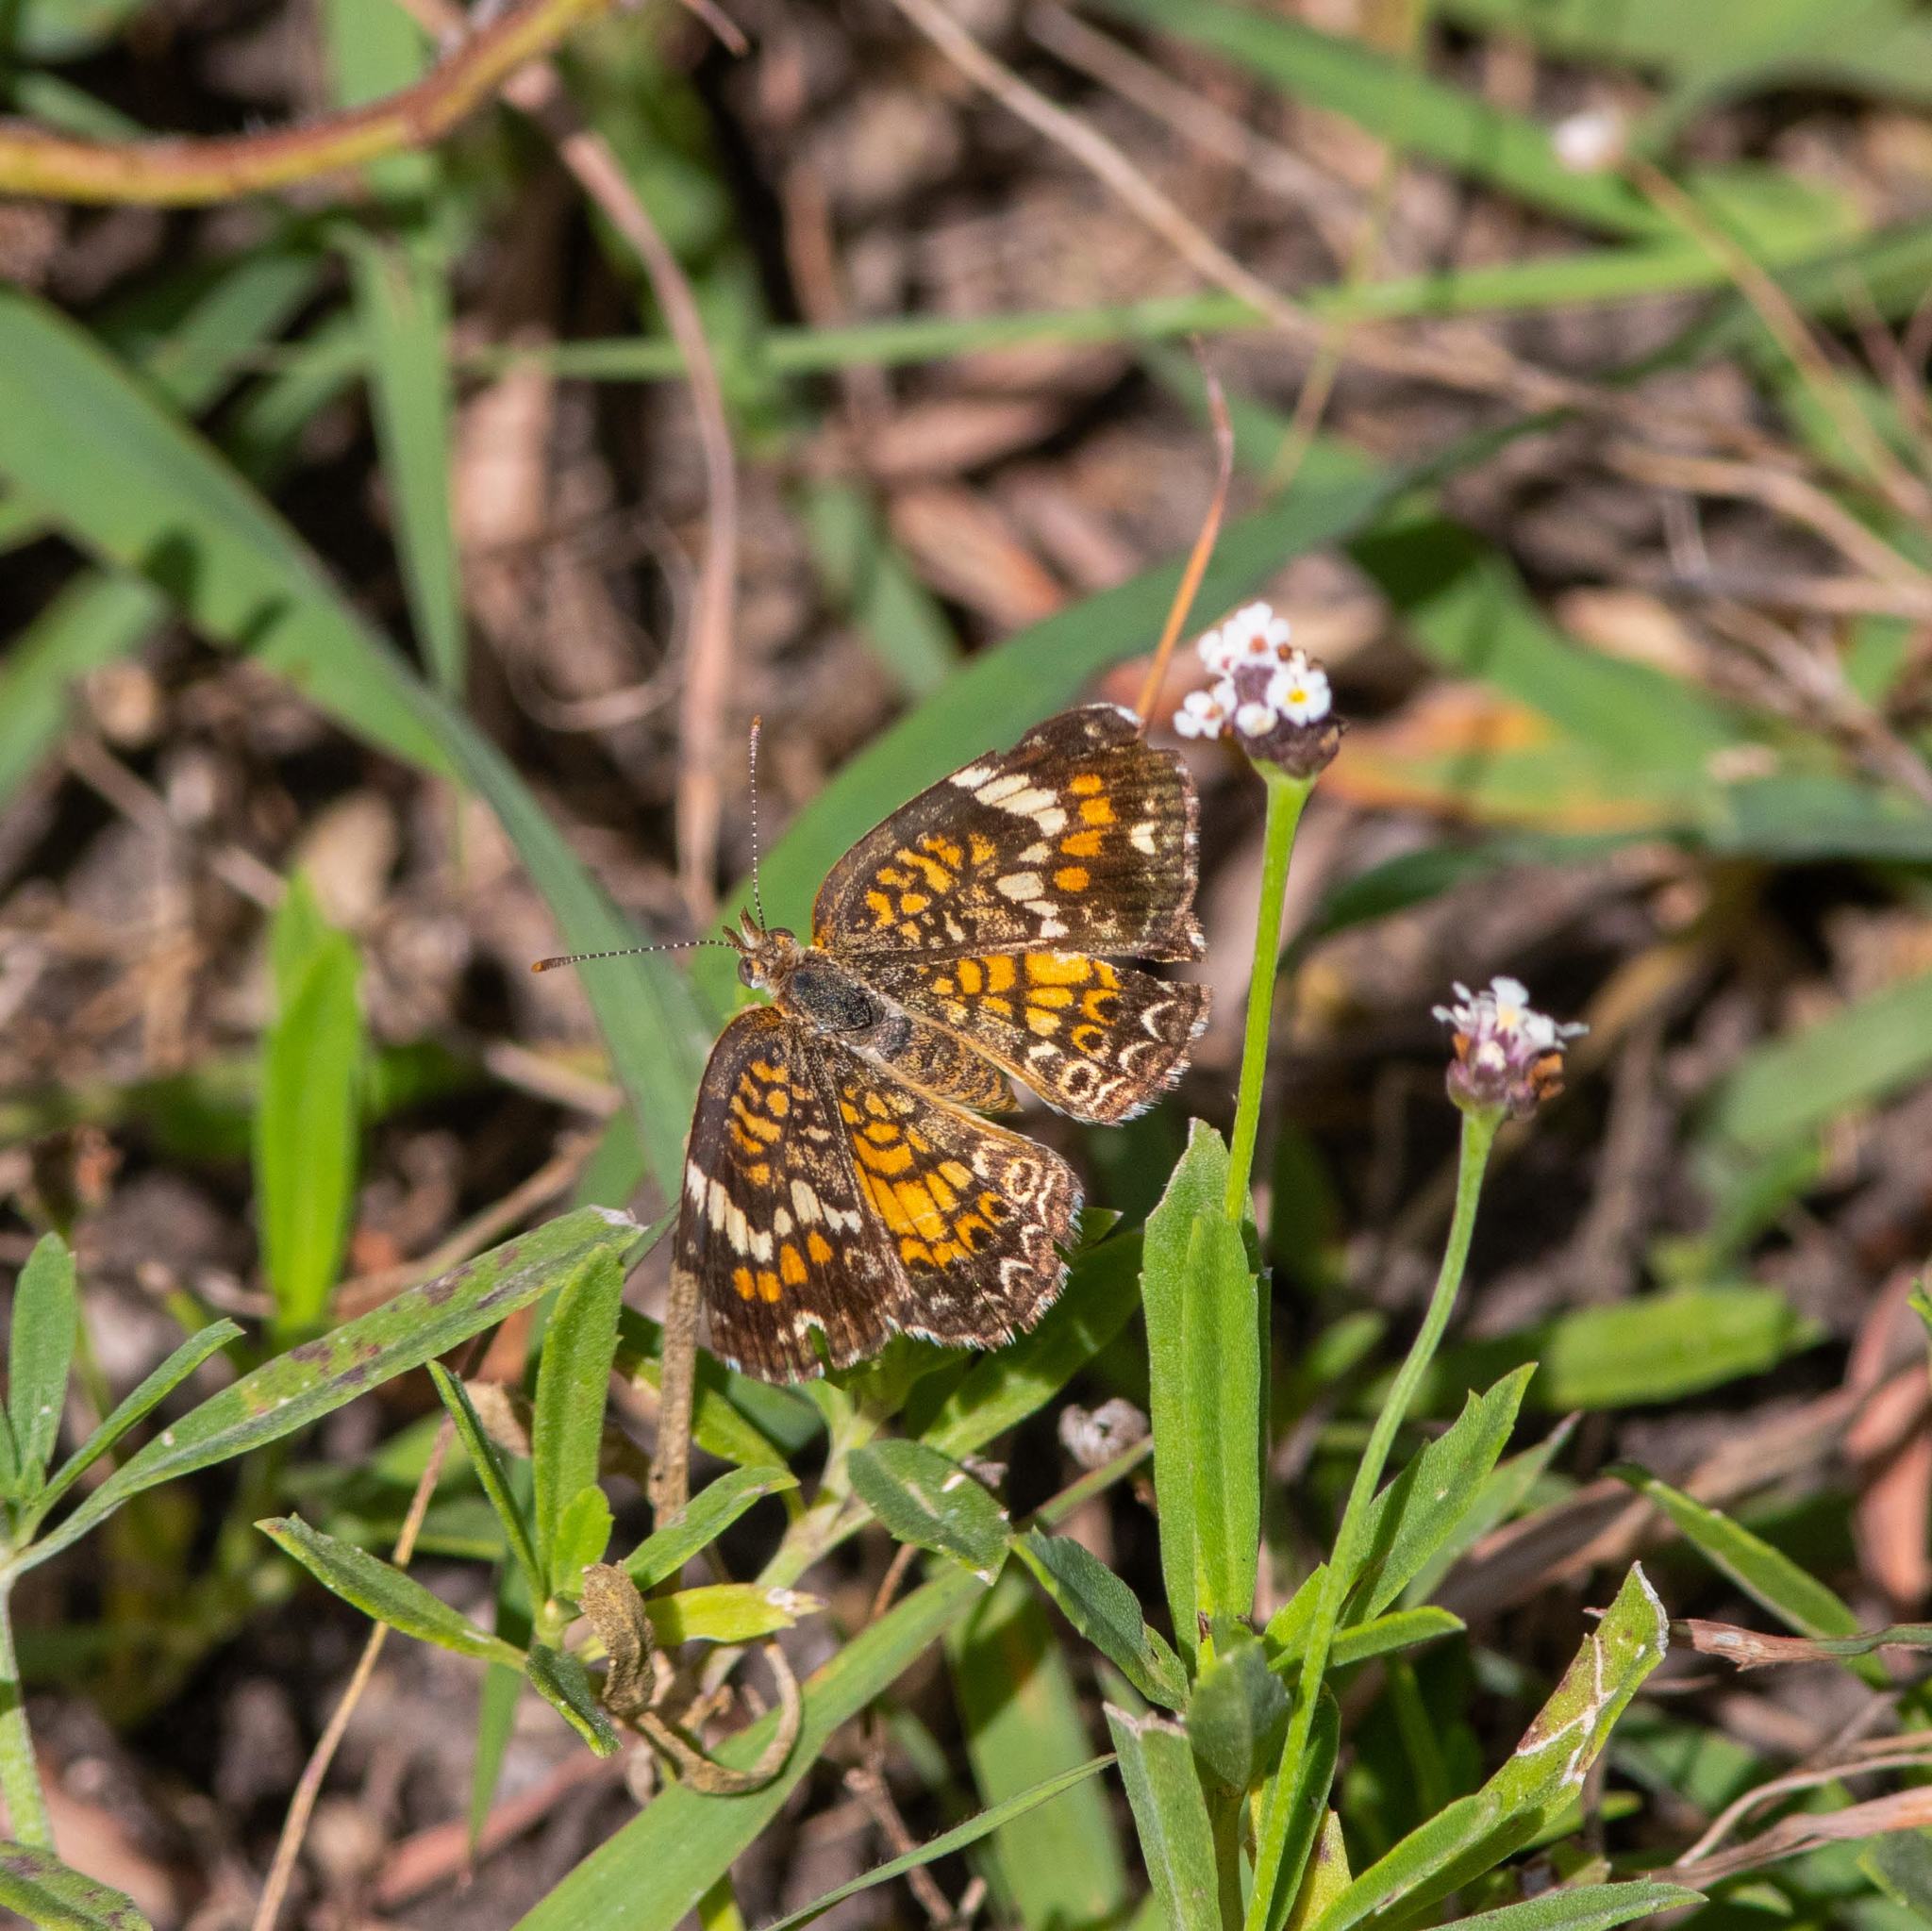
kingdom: Animalia
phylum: Arthropoda
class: Insecta
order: Lepidoptera
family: Nymphalidae
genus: Phyciodes
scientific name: Phyciodes phaon
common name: Phaon crescent
